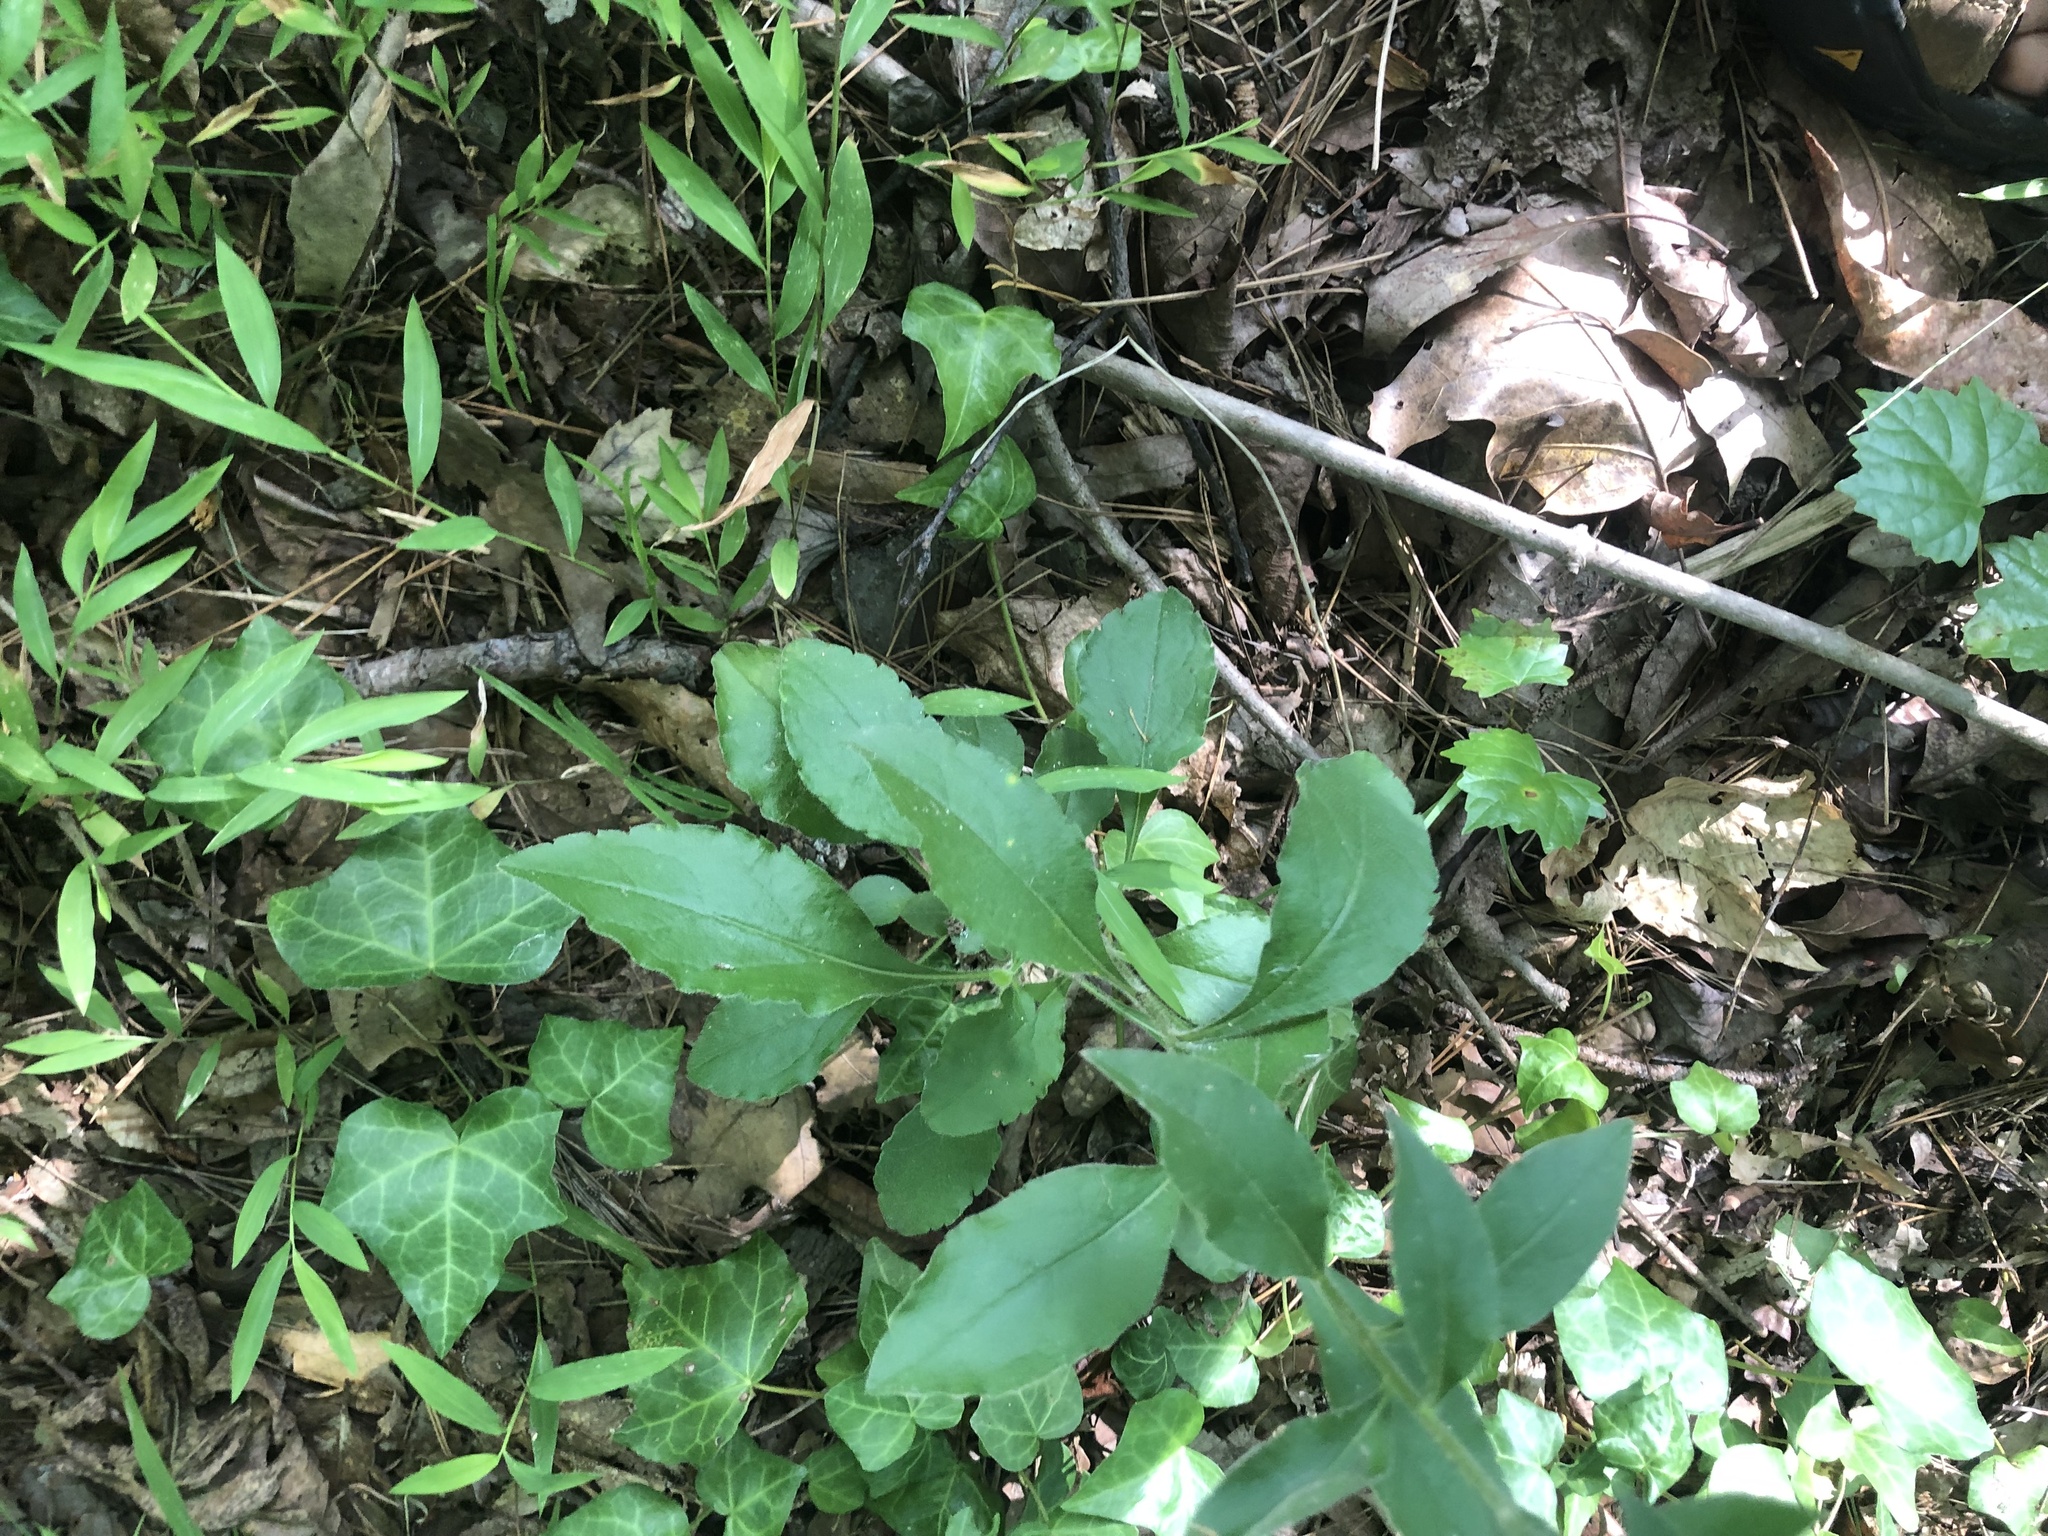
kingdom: Plantae
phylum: Tracheophyta
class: Magnoliopsida
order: Asterales
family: Asteraceae
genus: Solidago
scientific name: Solidago petiolaris
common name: Downy ragged goldenrod
